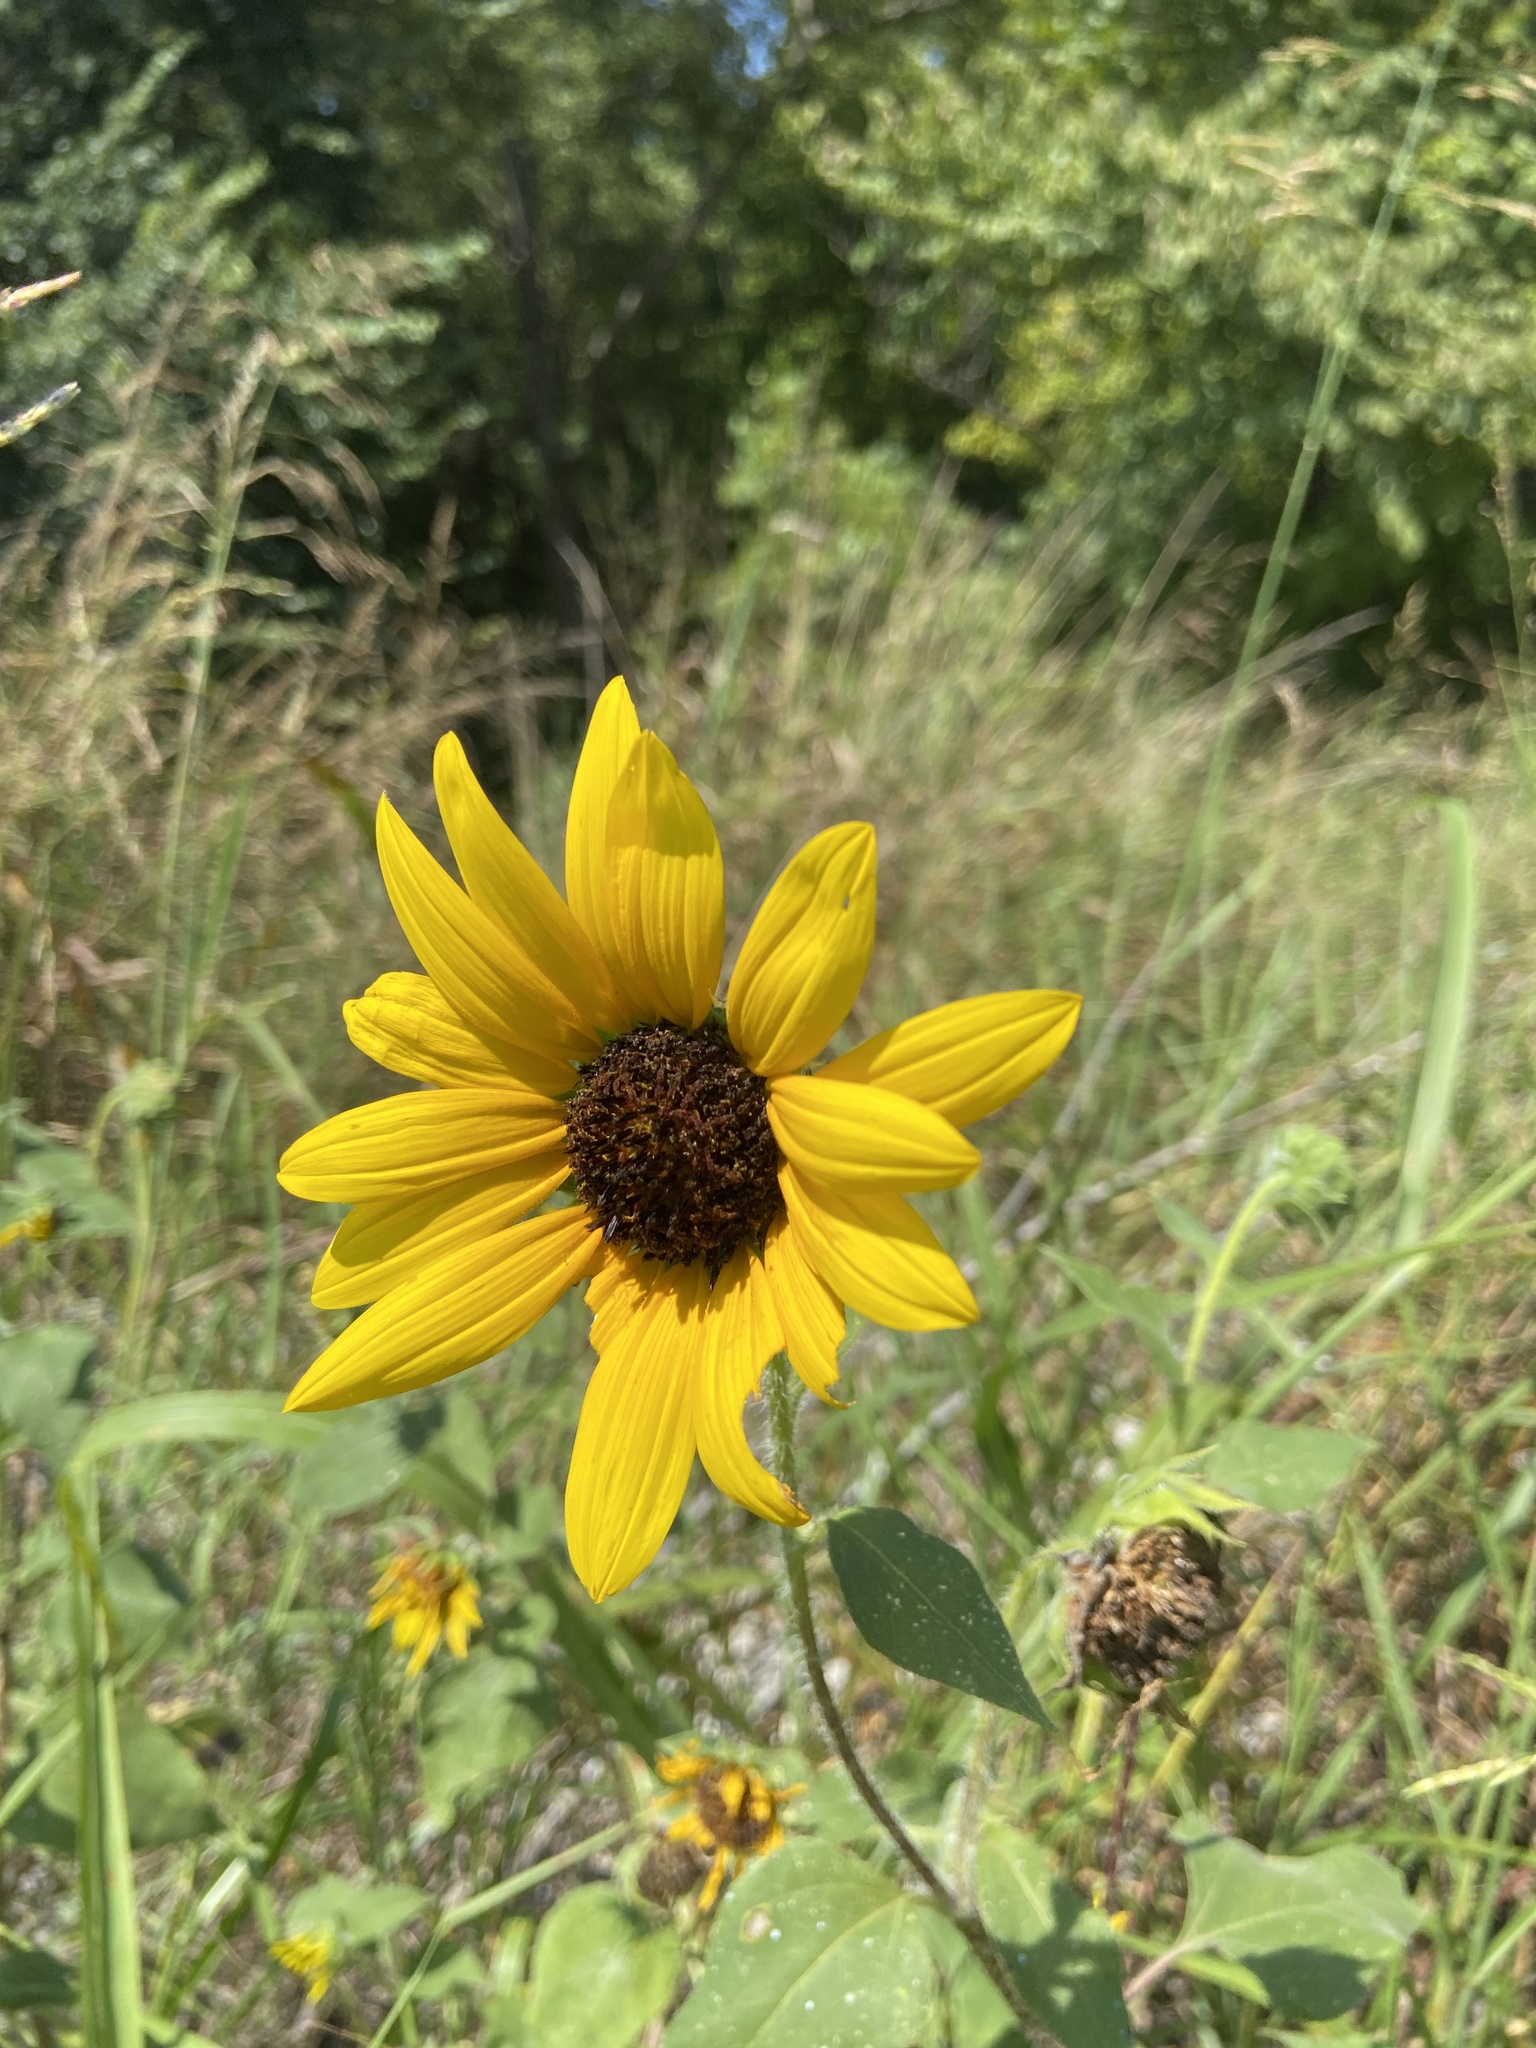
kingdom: Plantae
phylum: Tracheophyta
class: Magnoliopsida
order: Asterales
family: Asteraceae
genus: Helianthus
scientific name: Helianthus annuus
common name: Sunflower
